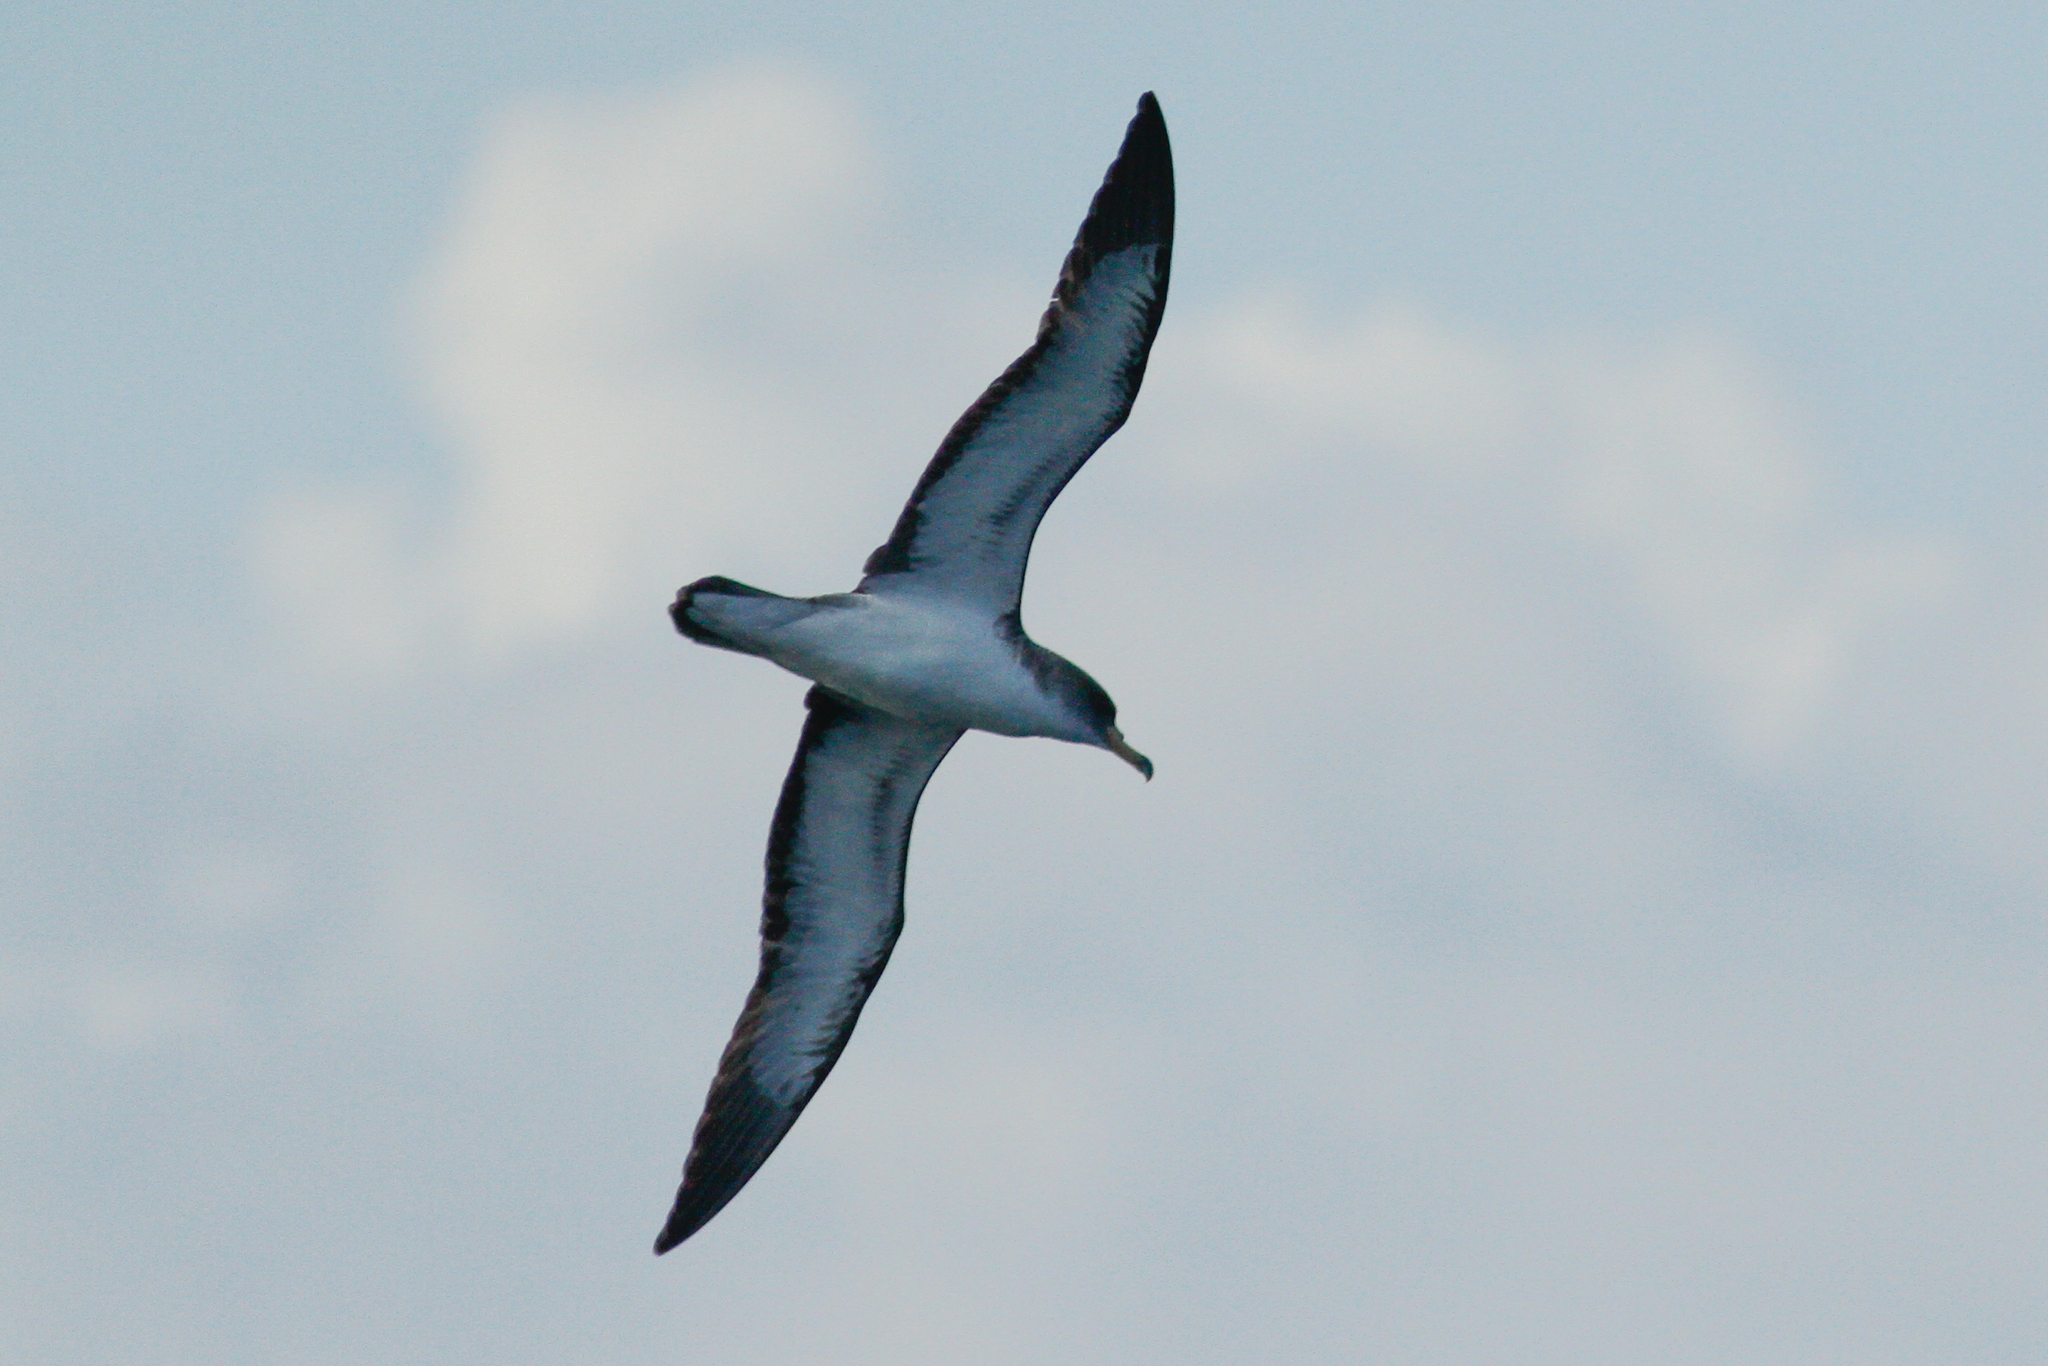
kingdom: Animalia
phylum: Chordata
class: Aves
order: Procellariiformes
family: Procellariidae
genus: Calonectris
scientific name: Calonectris diomedea
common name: Cory's shearwater
